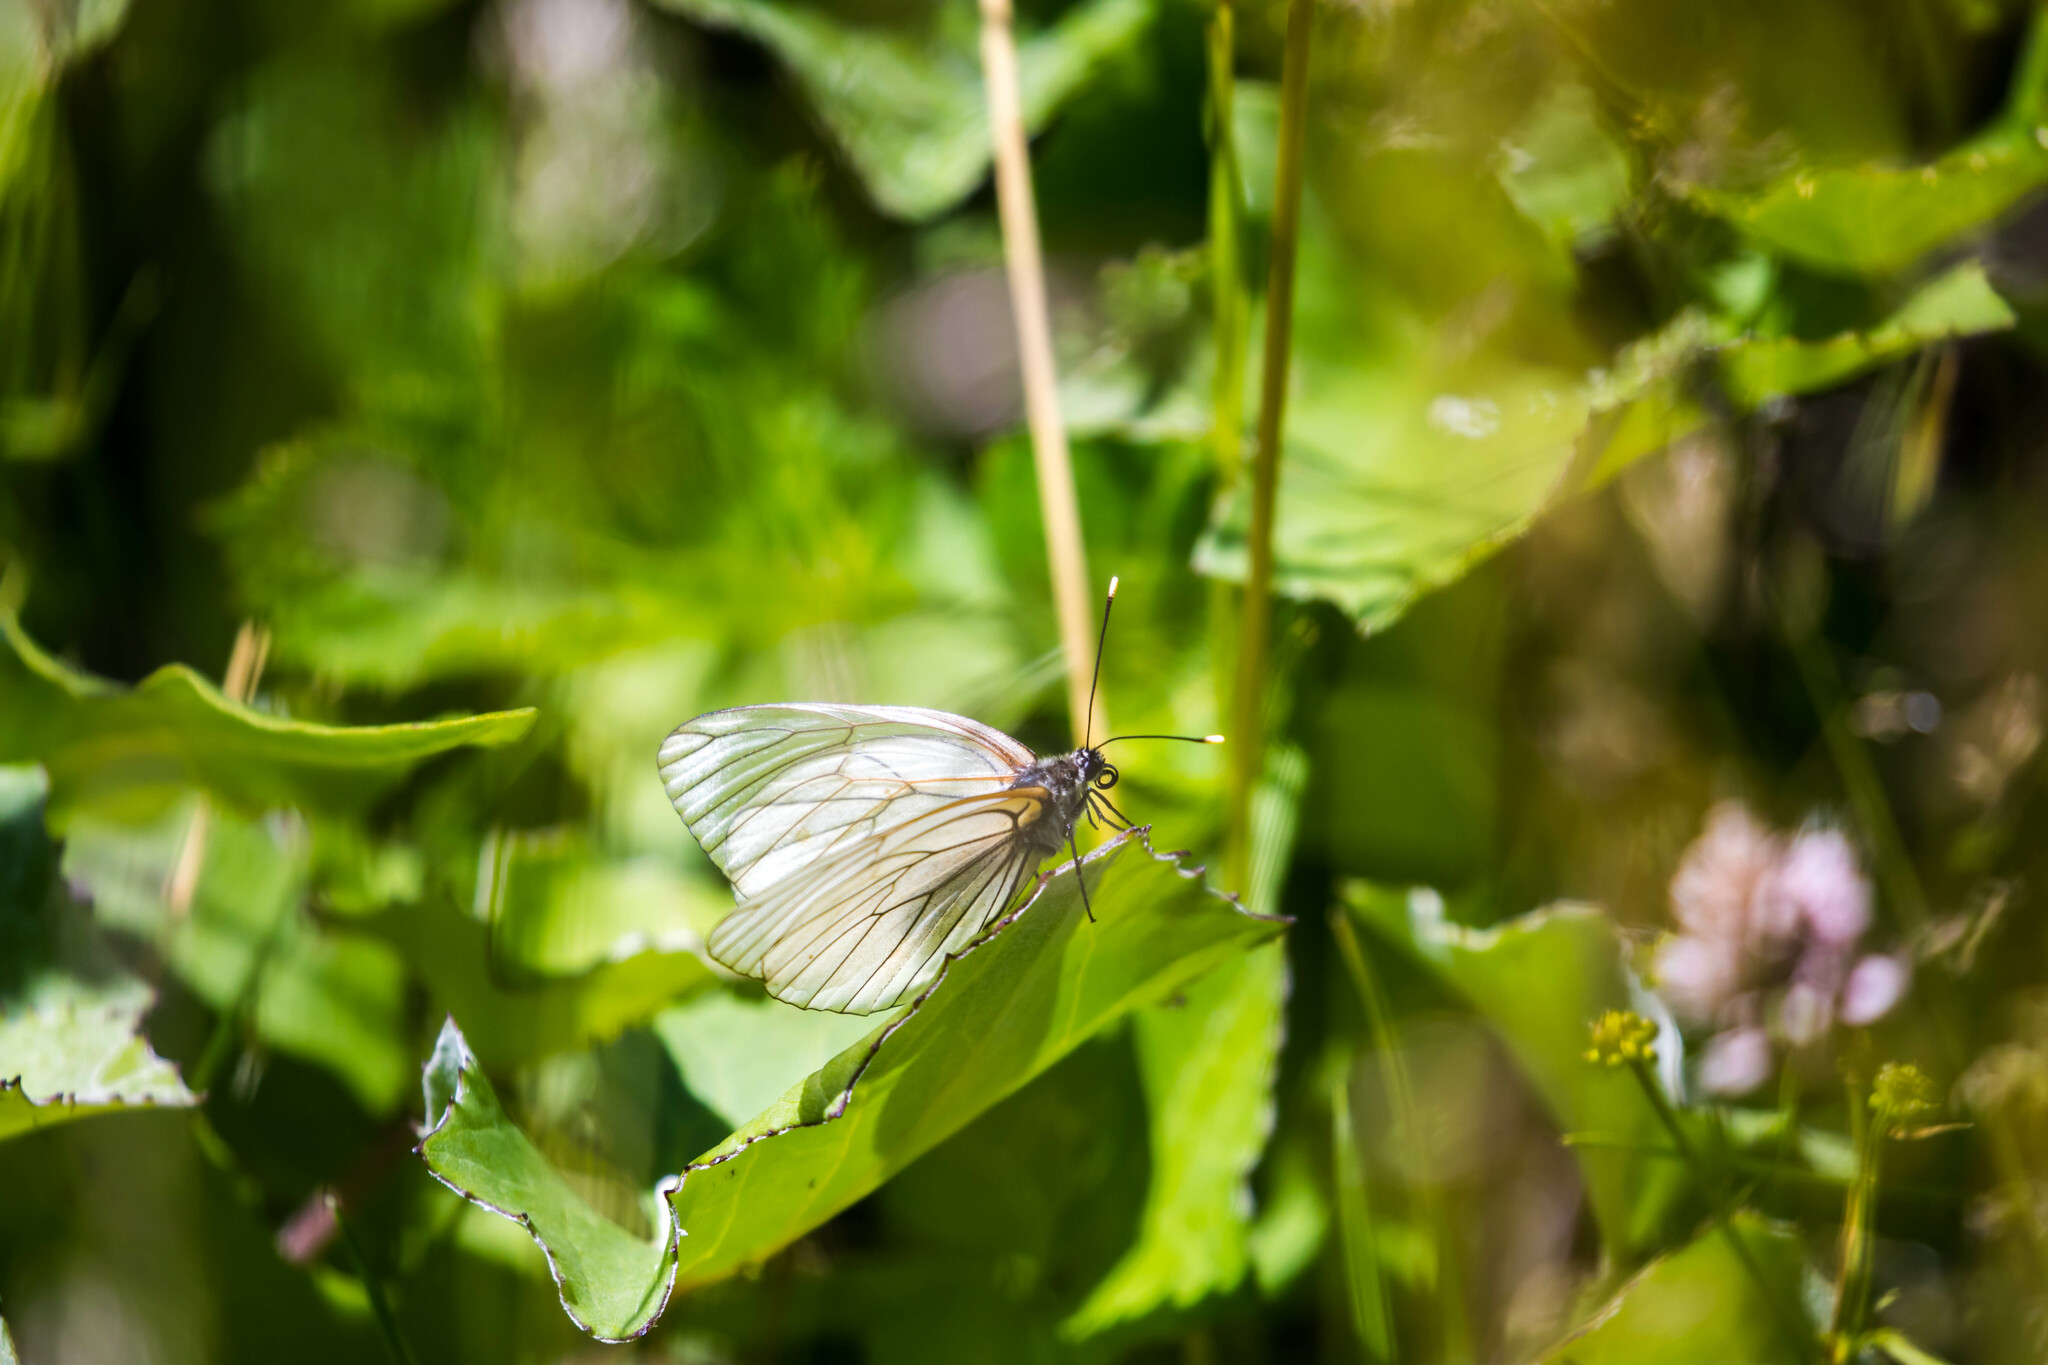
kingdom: Animalia
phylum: Arthropoda
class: Insecta
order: Lepidoptera
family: Pieridae
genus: Aporia
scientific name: Aporia crataegi
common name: Black-veined white
